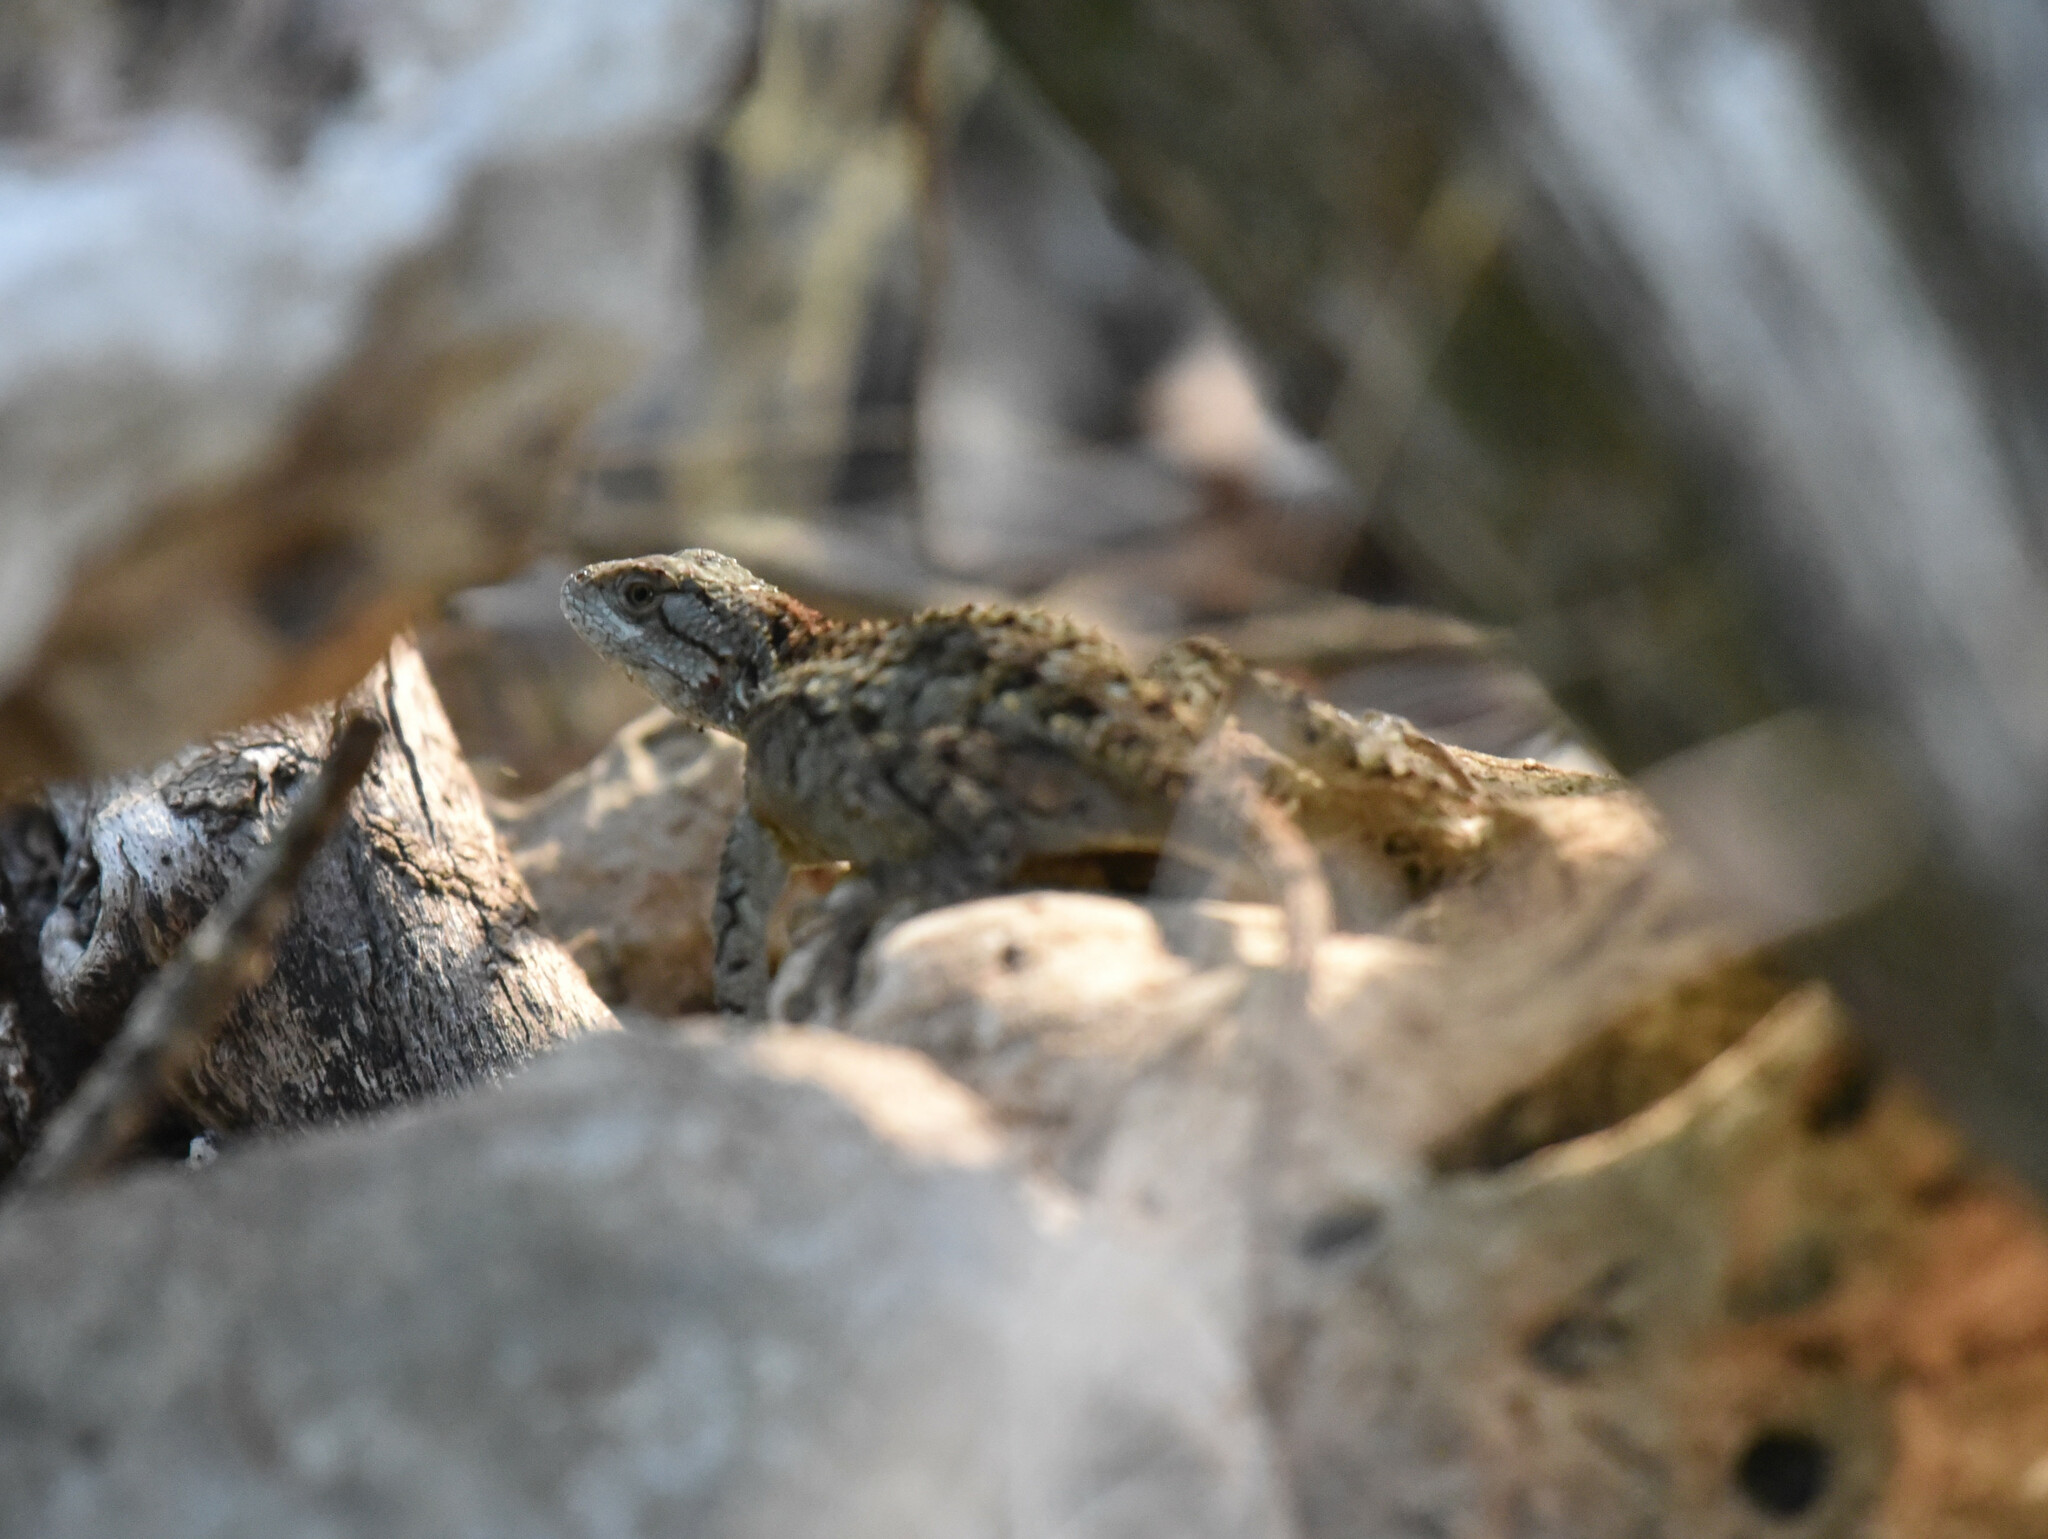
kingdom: Animalia
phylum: Chordata
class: Squamata
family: Phrynosomatidae
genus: Sceloporus
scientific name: Sceloporus olivaceus
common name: Texas spiny lizard
